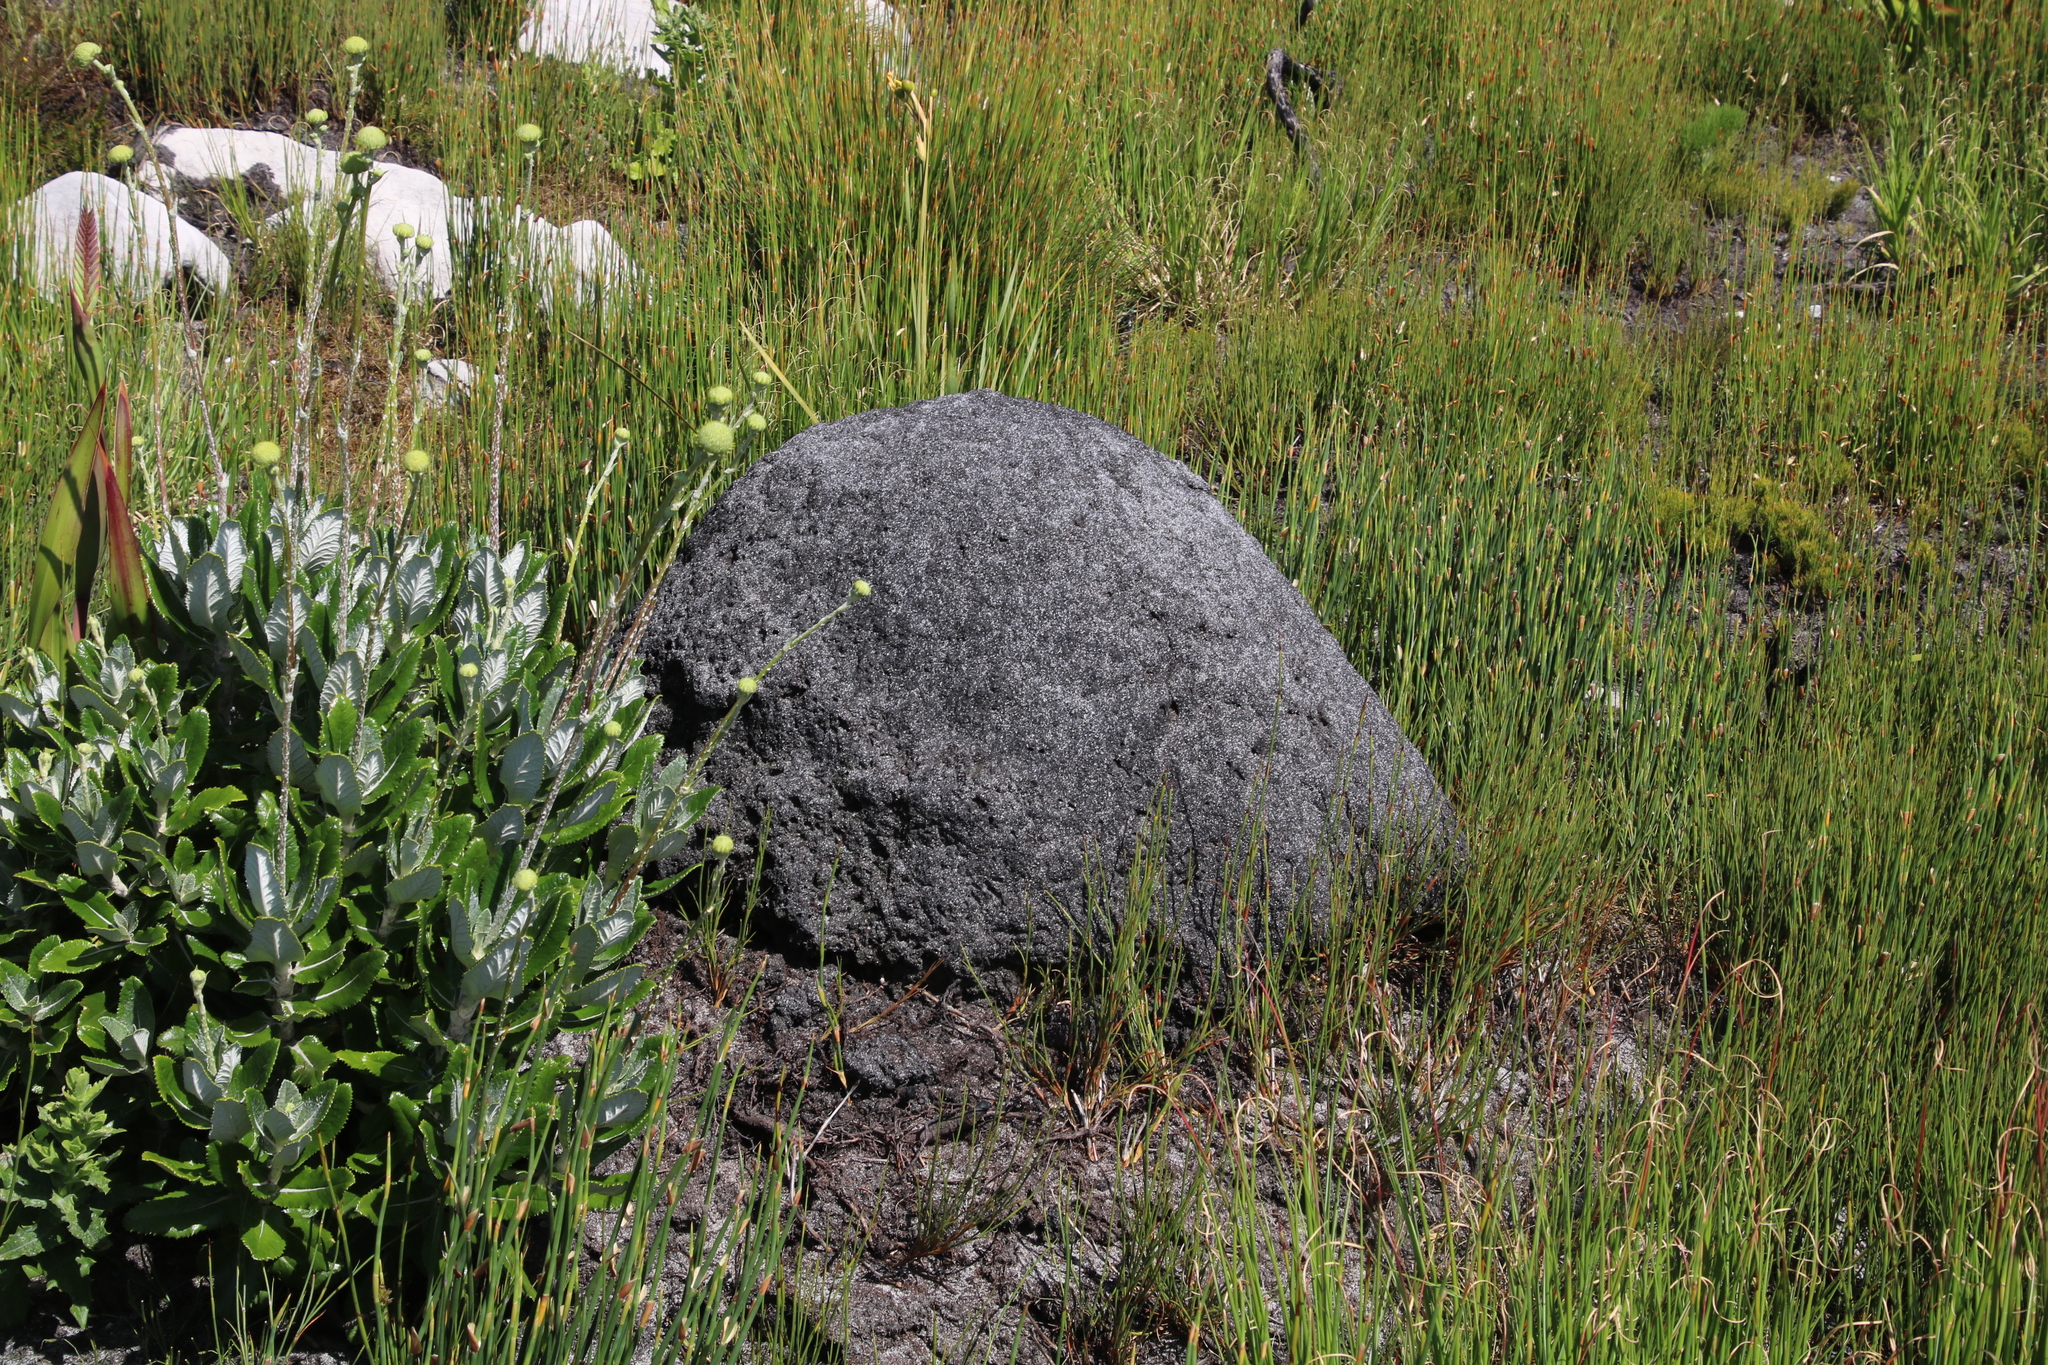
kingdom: Animalia
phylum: Arthropoda
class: Insecta
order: Blattodea
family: Termitidae
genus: Amitermes
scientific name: Amitermes hastatus
